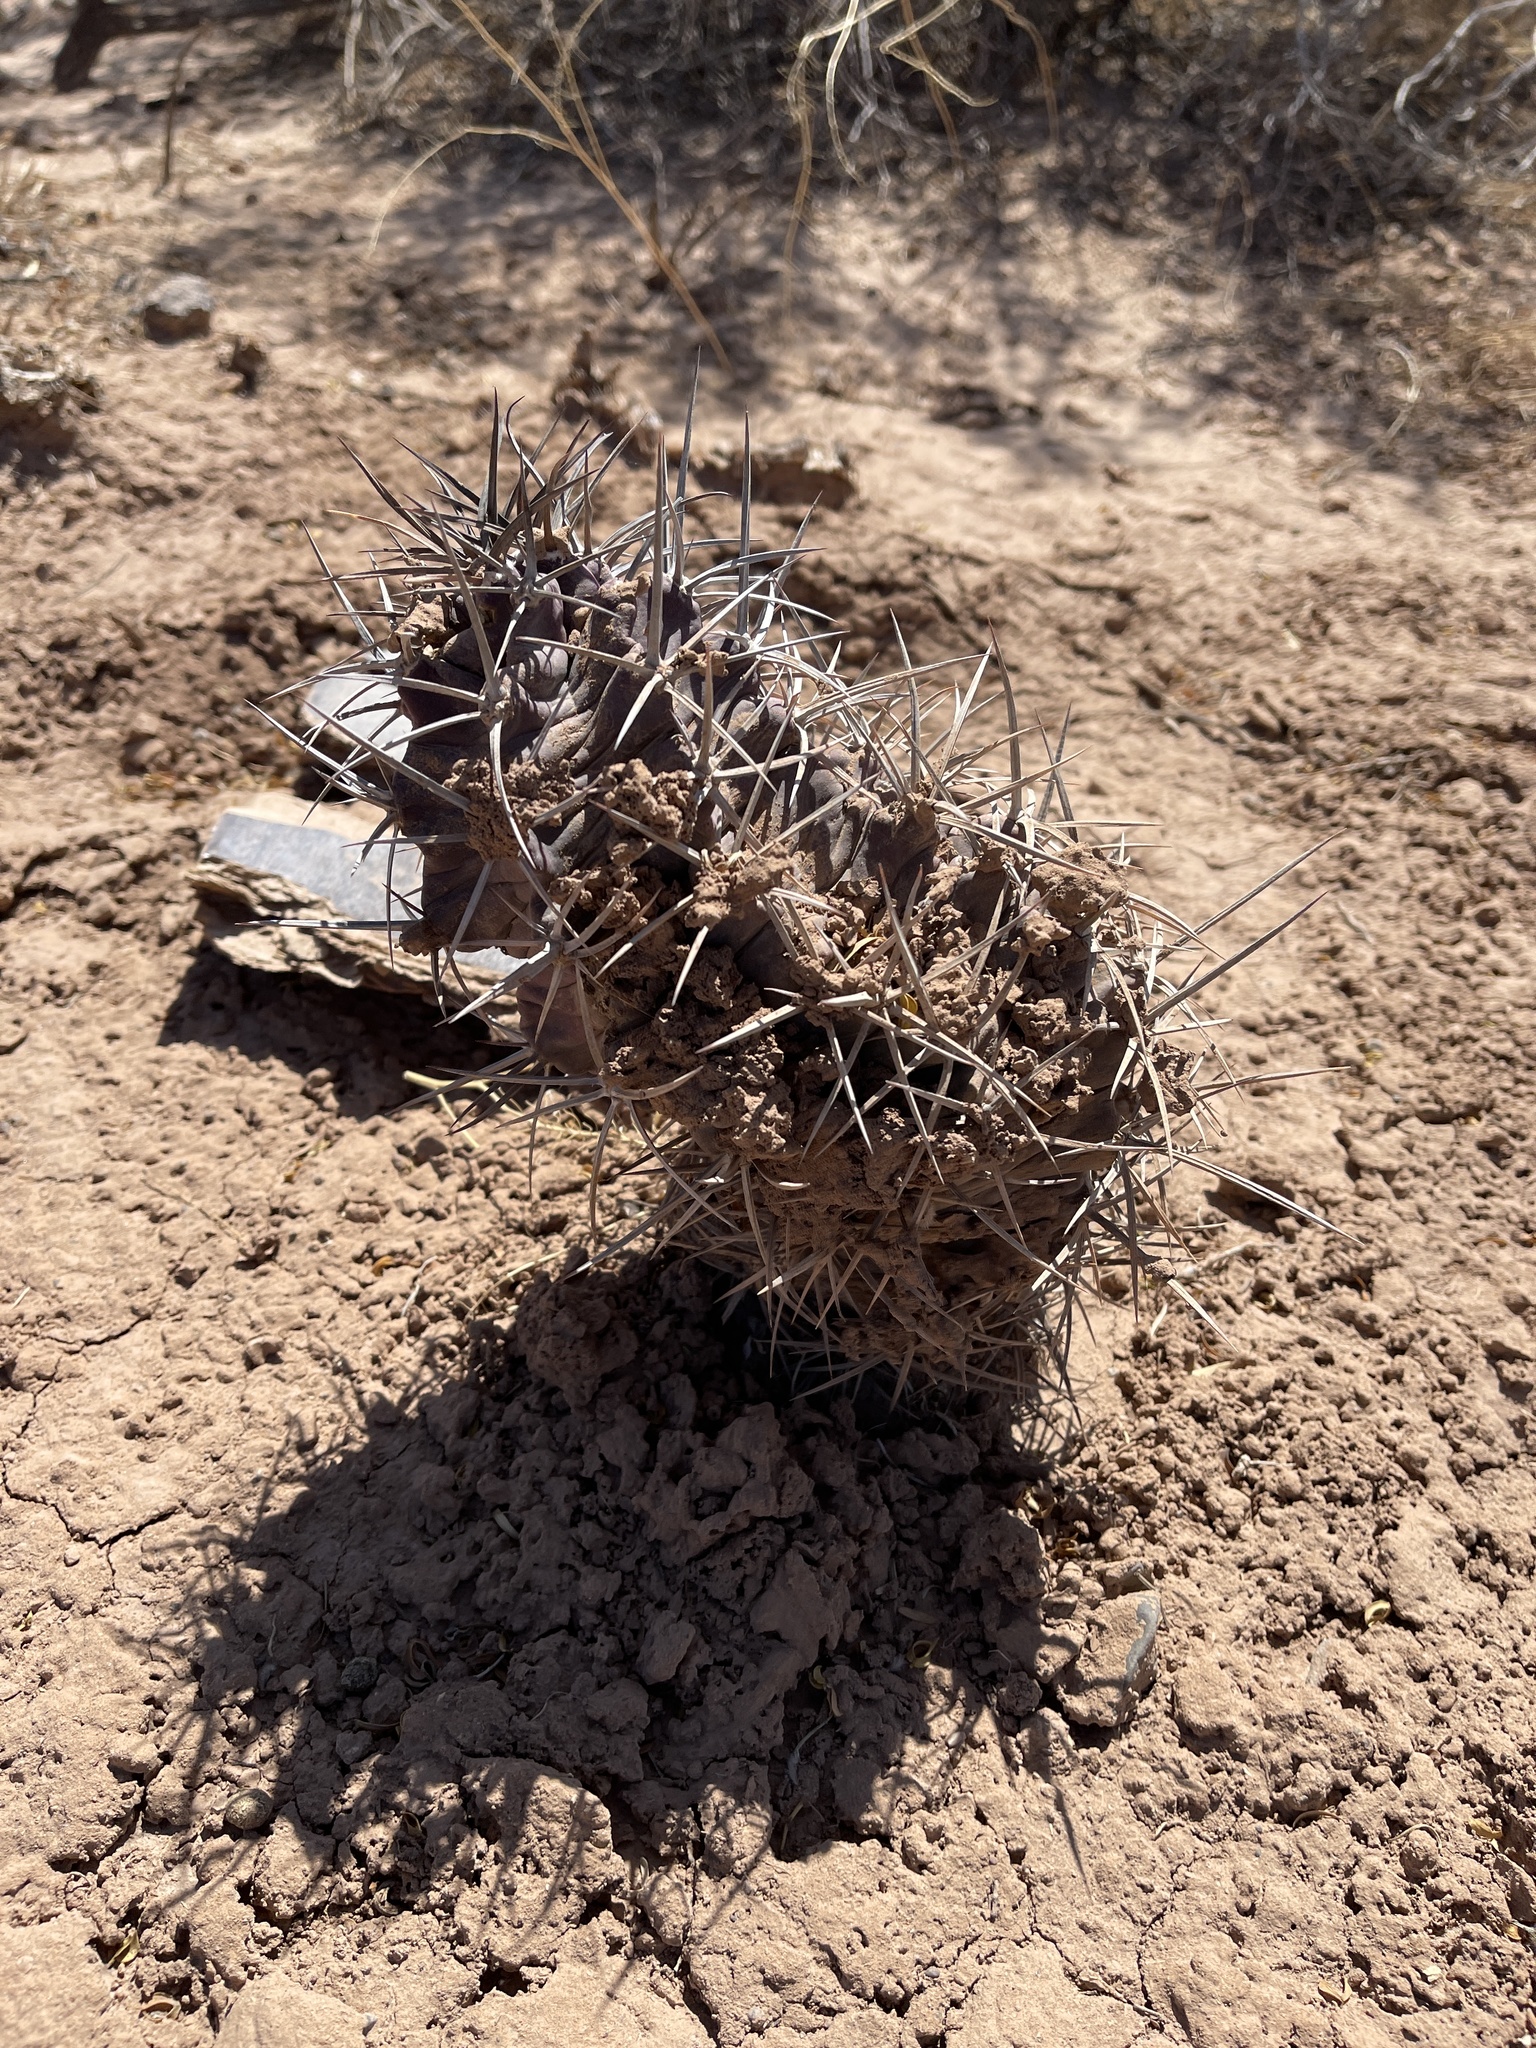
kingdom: Plantae
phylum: Tracheophyta
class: Magnoliopsida
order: Caryophyllales
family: Cactaceae
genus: Echinocereus
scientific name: Echinocereus triglochidiatus
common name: Claretcup hedgehog
